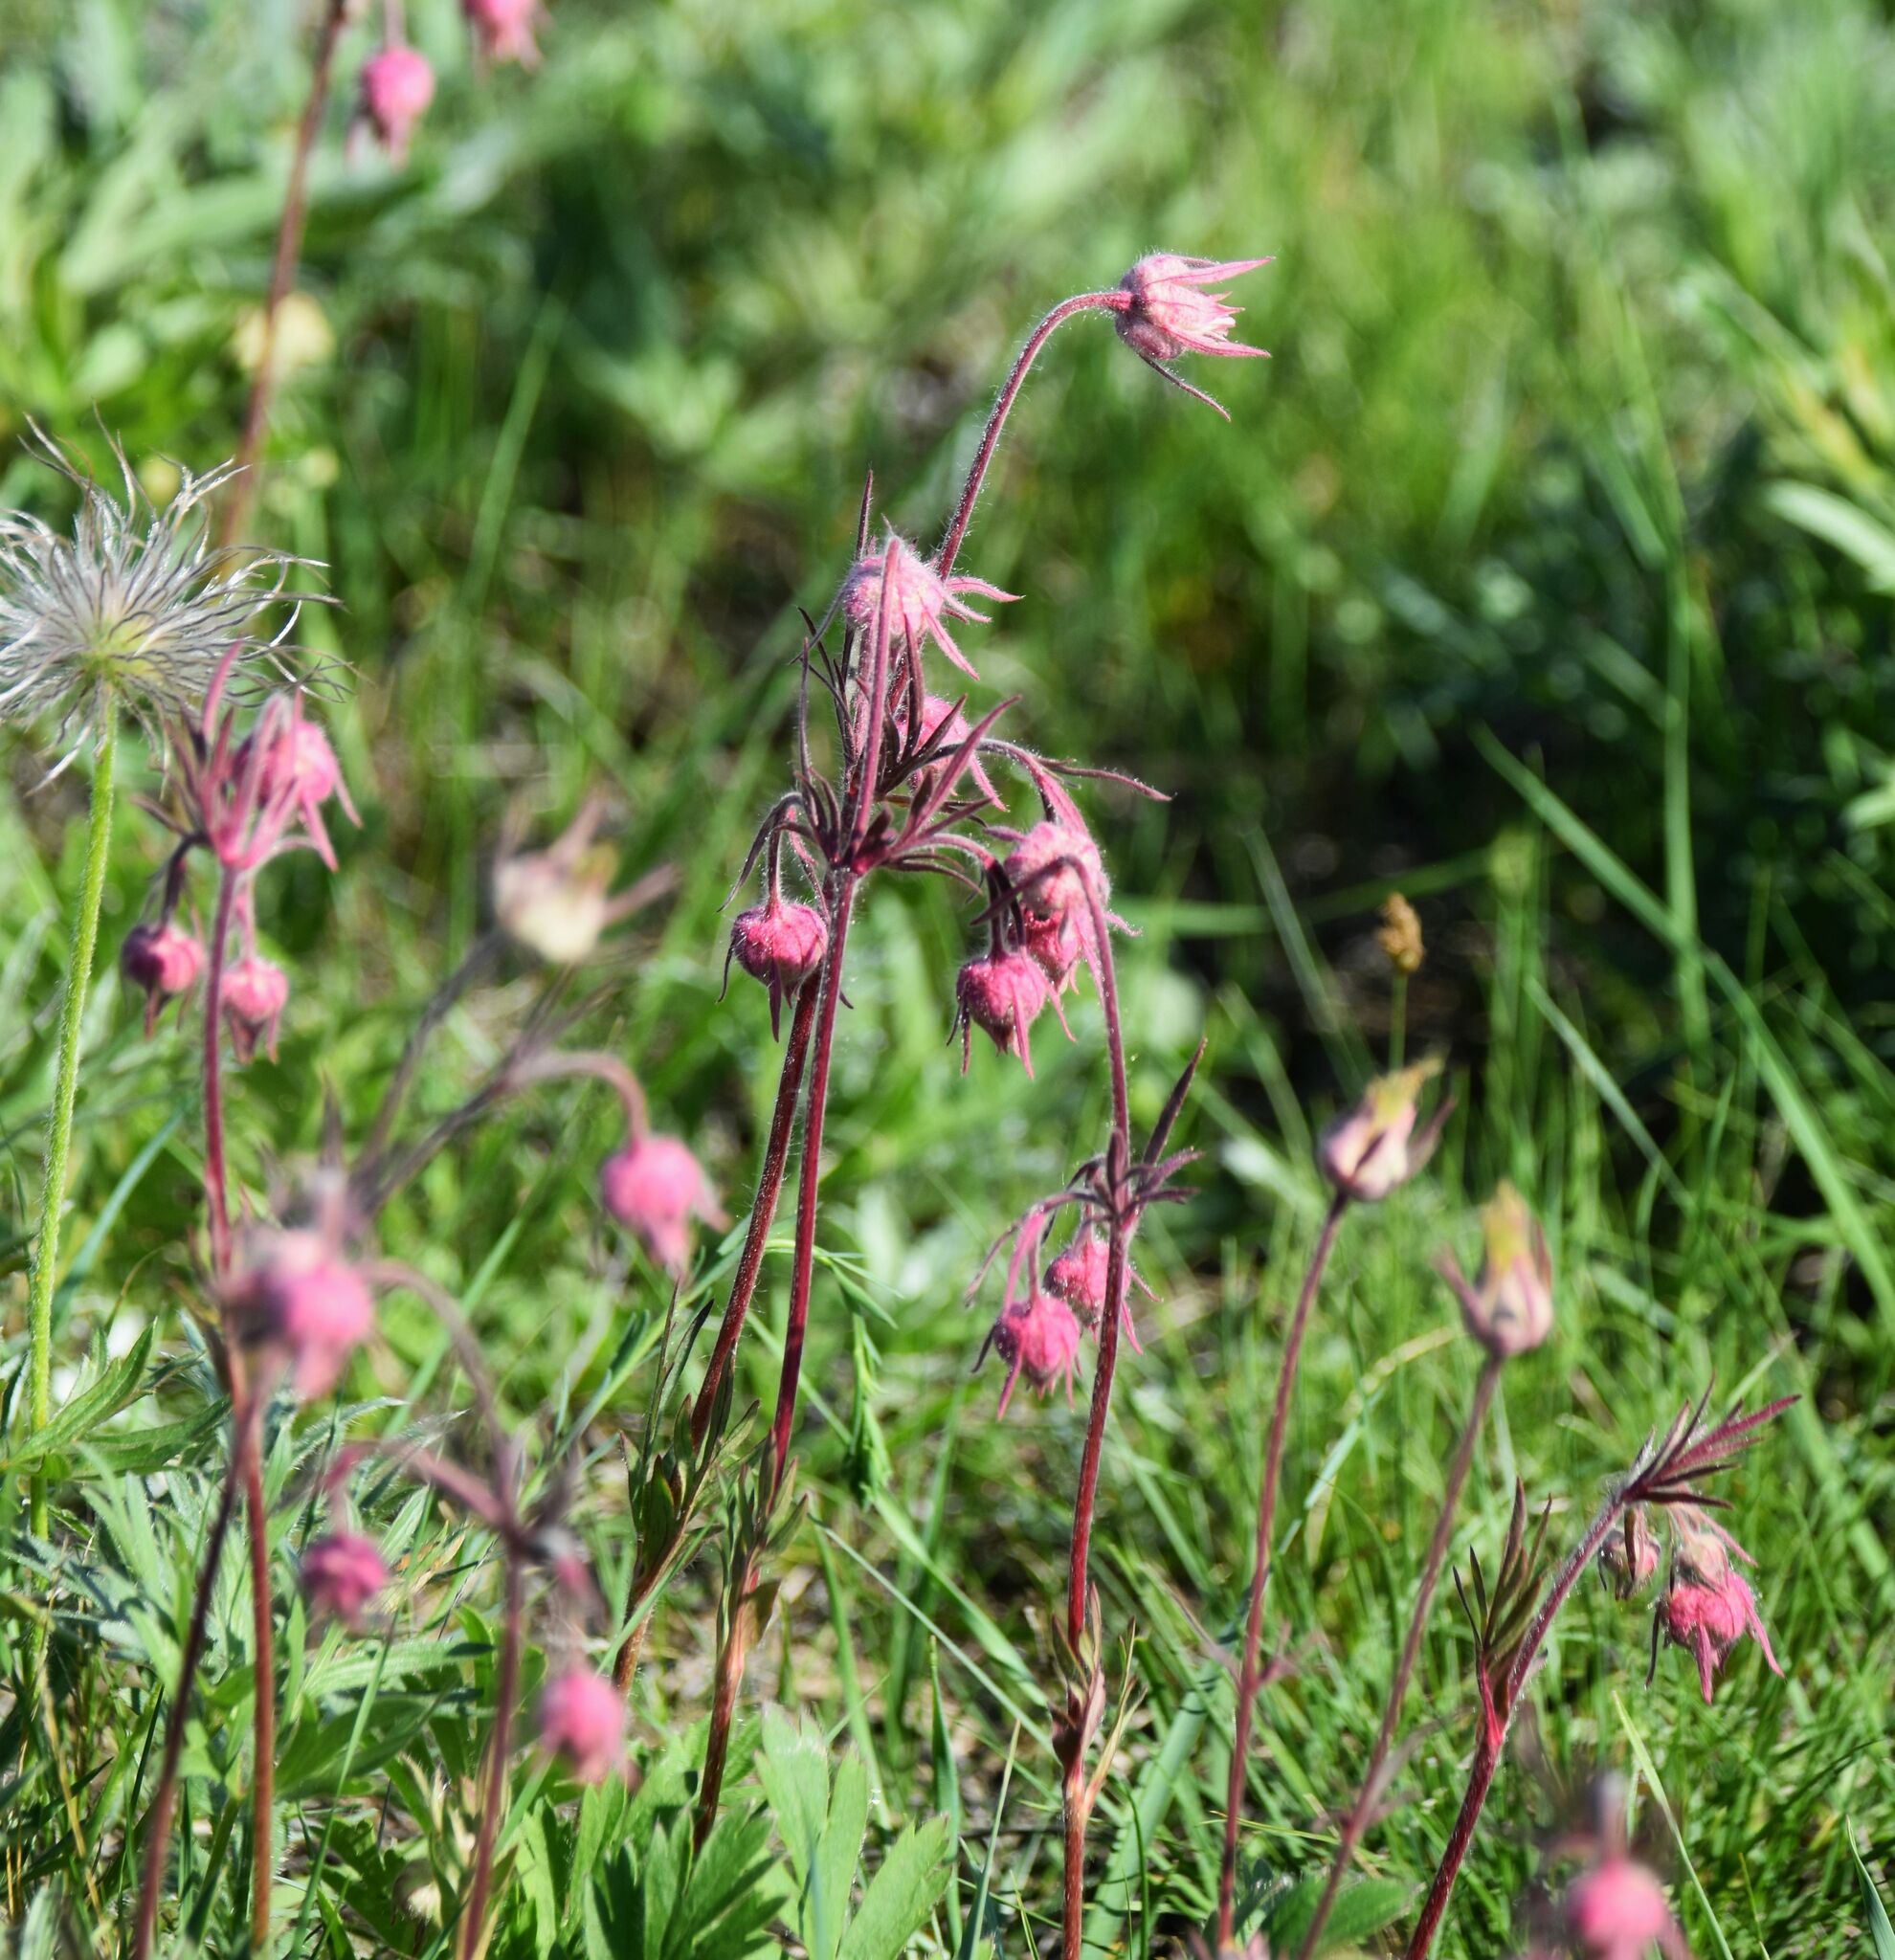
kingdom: Plantae
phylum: Tracheophyta
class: Magnoliopsida
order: Rosales
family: Rosaceae
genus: Geum
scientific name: Geum triflorum
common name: Old man's whiskers
